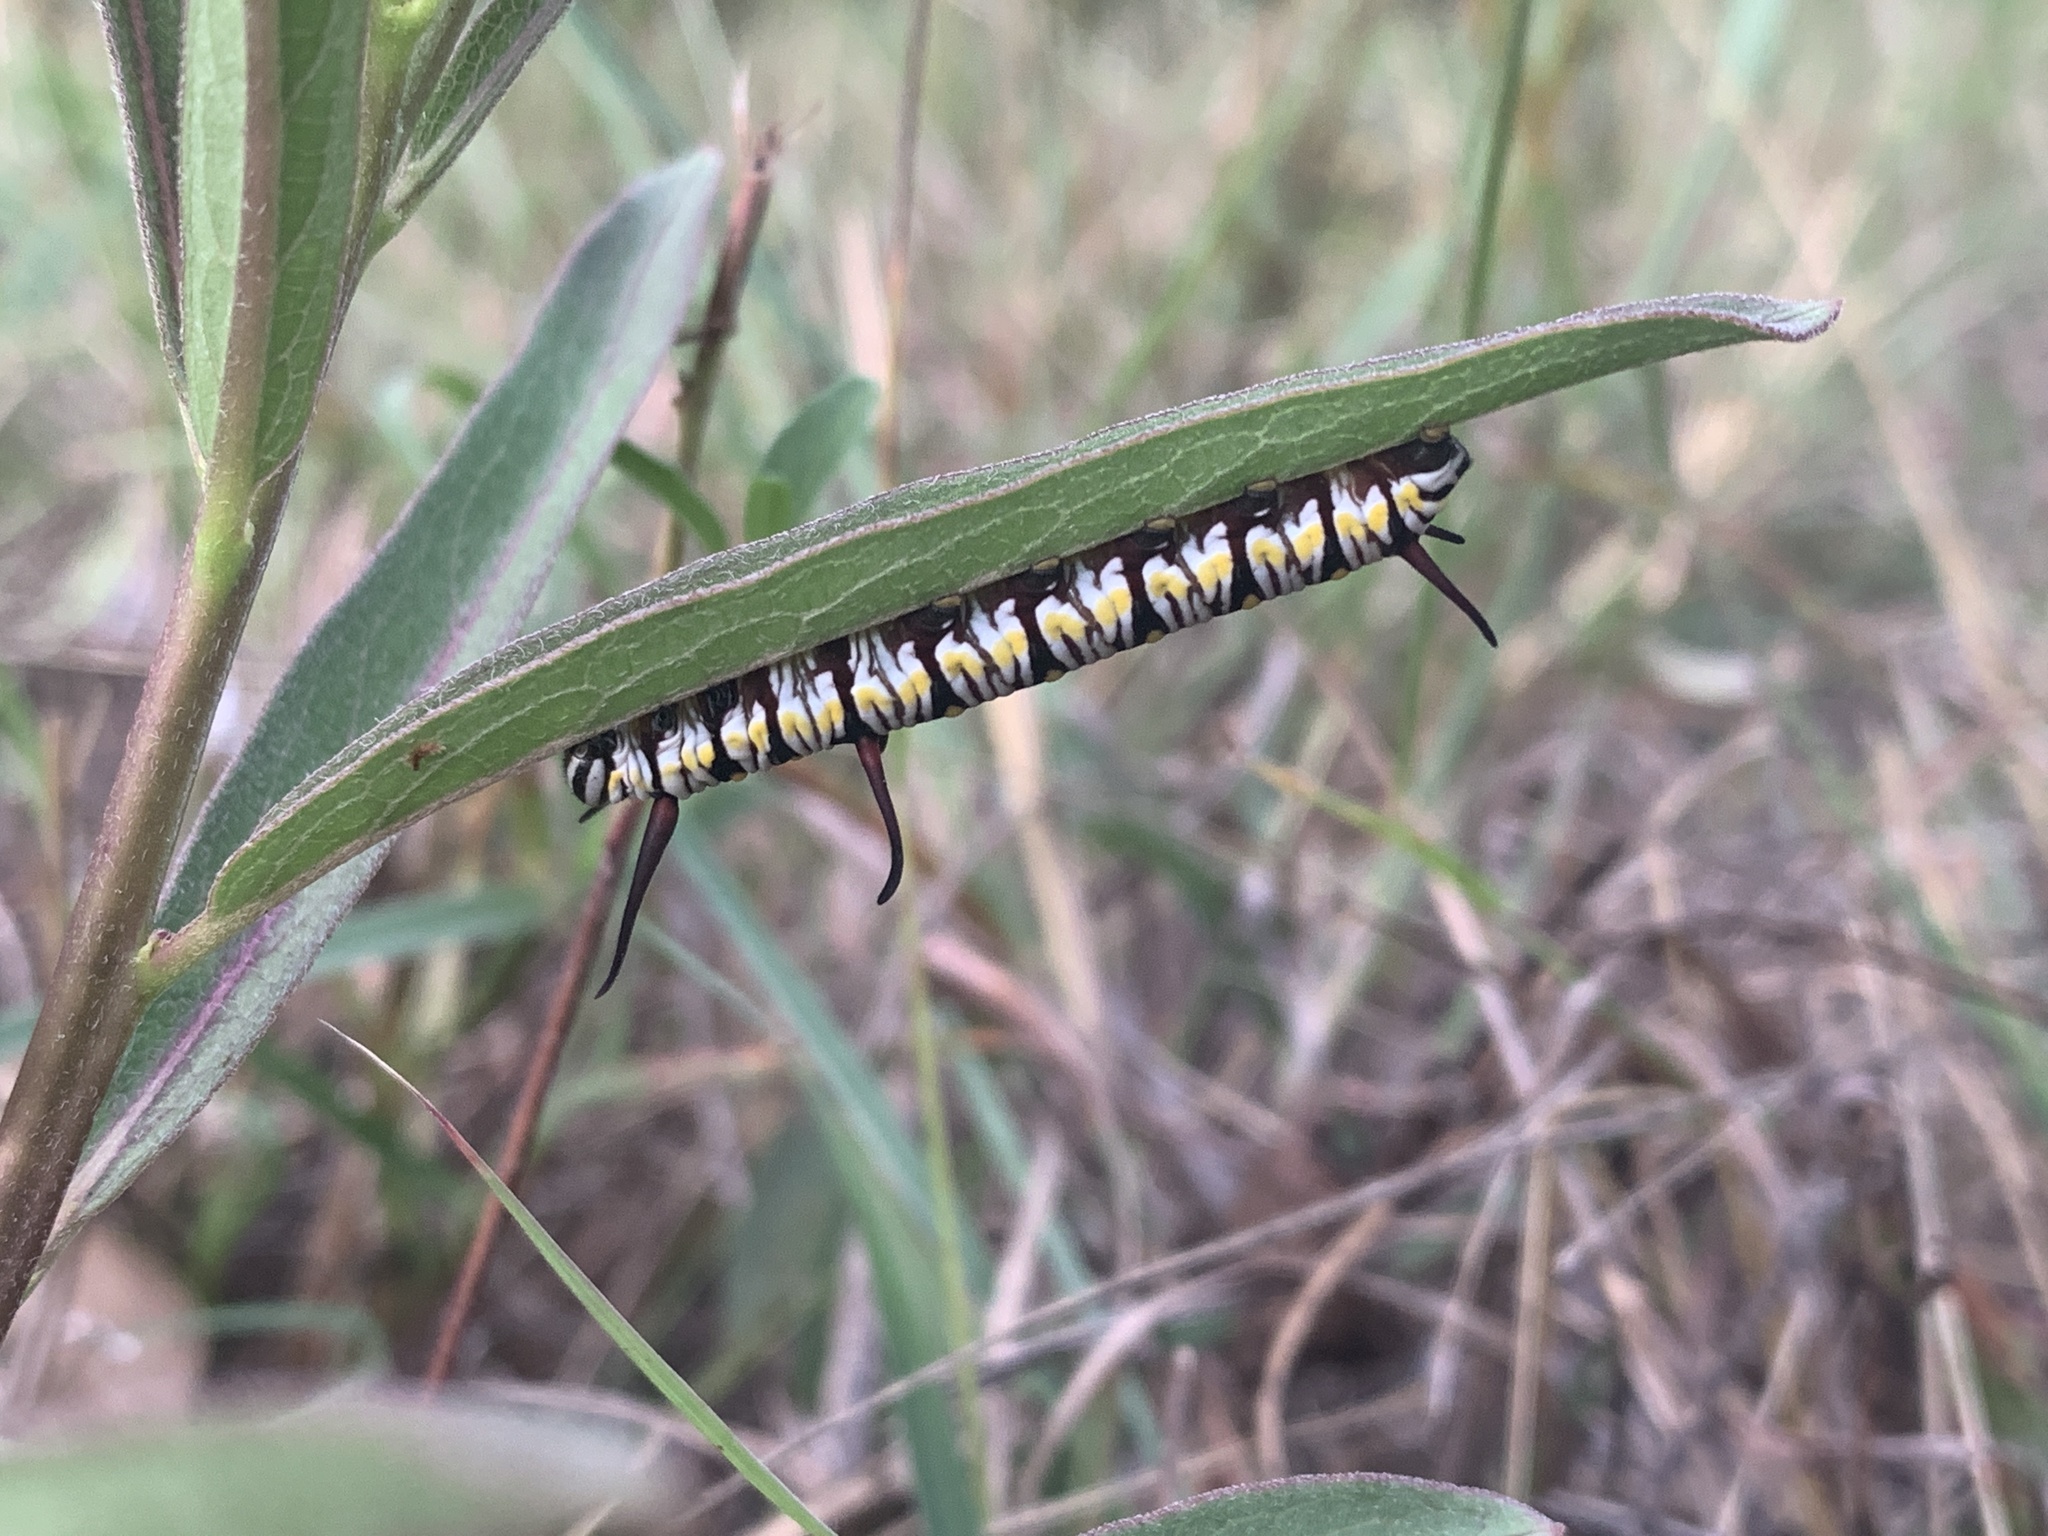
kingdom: Animalia
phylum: Arthropoda
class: Insecta
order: Lepidoptera
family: Nymphalidae
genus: Danaus
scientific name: Danaus gilippus
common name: Queen
